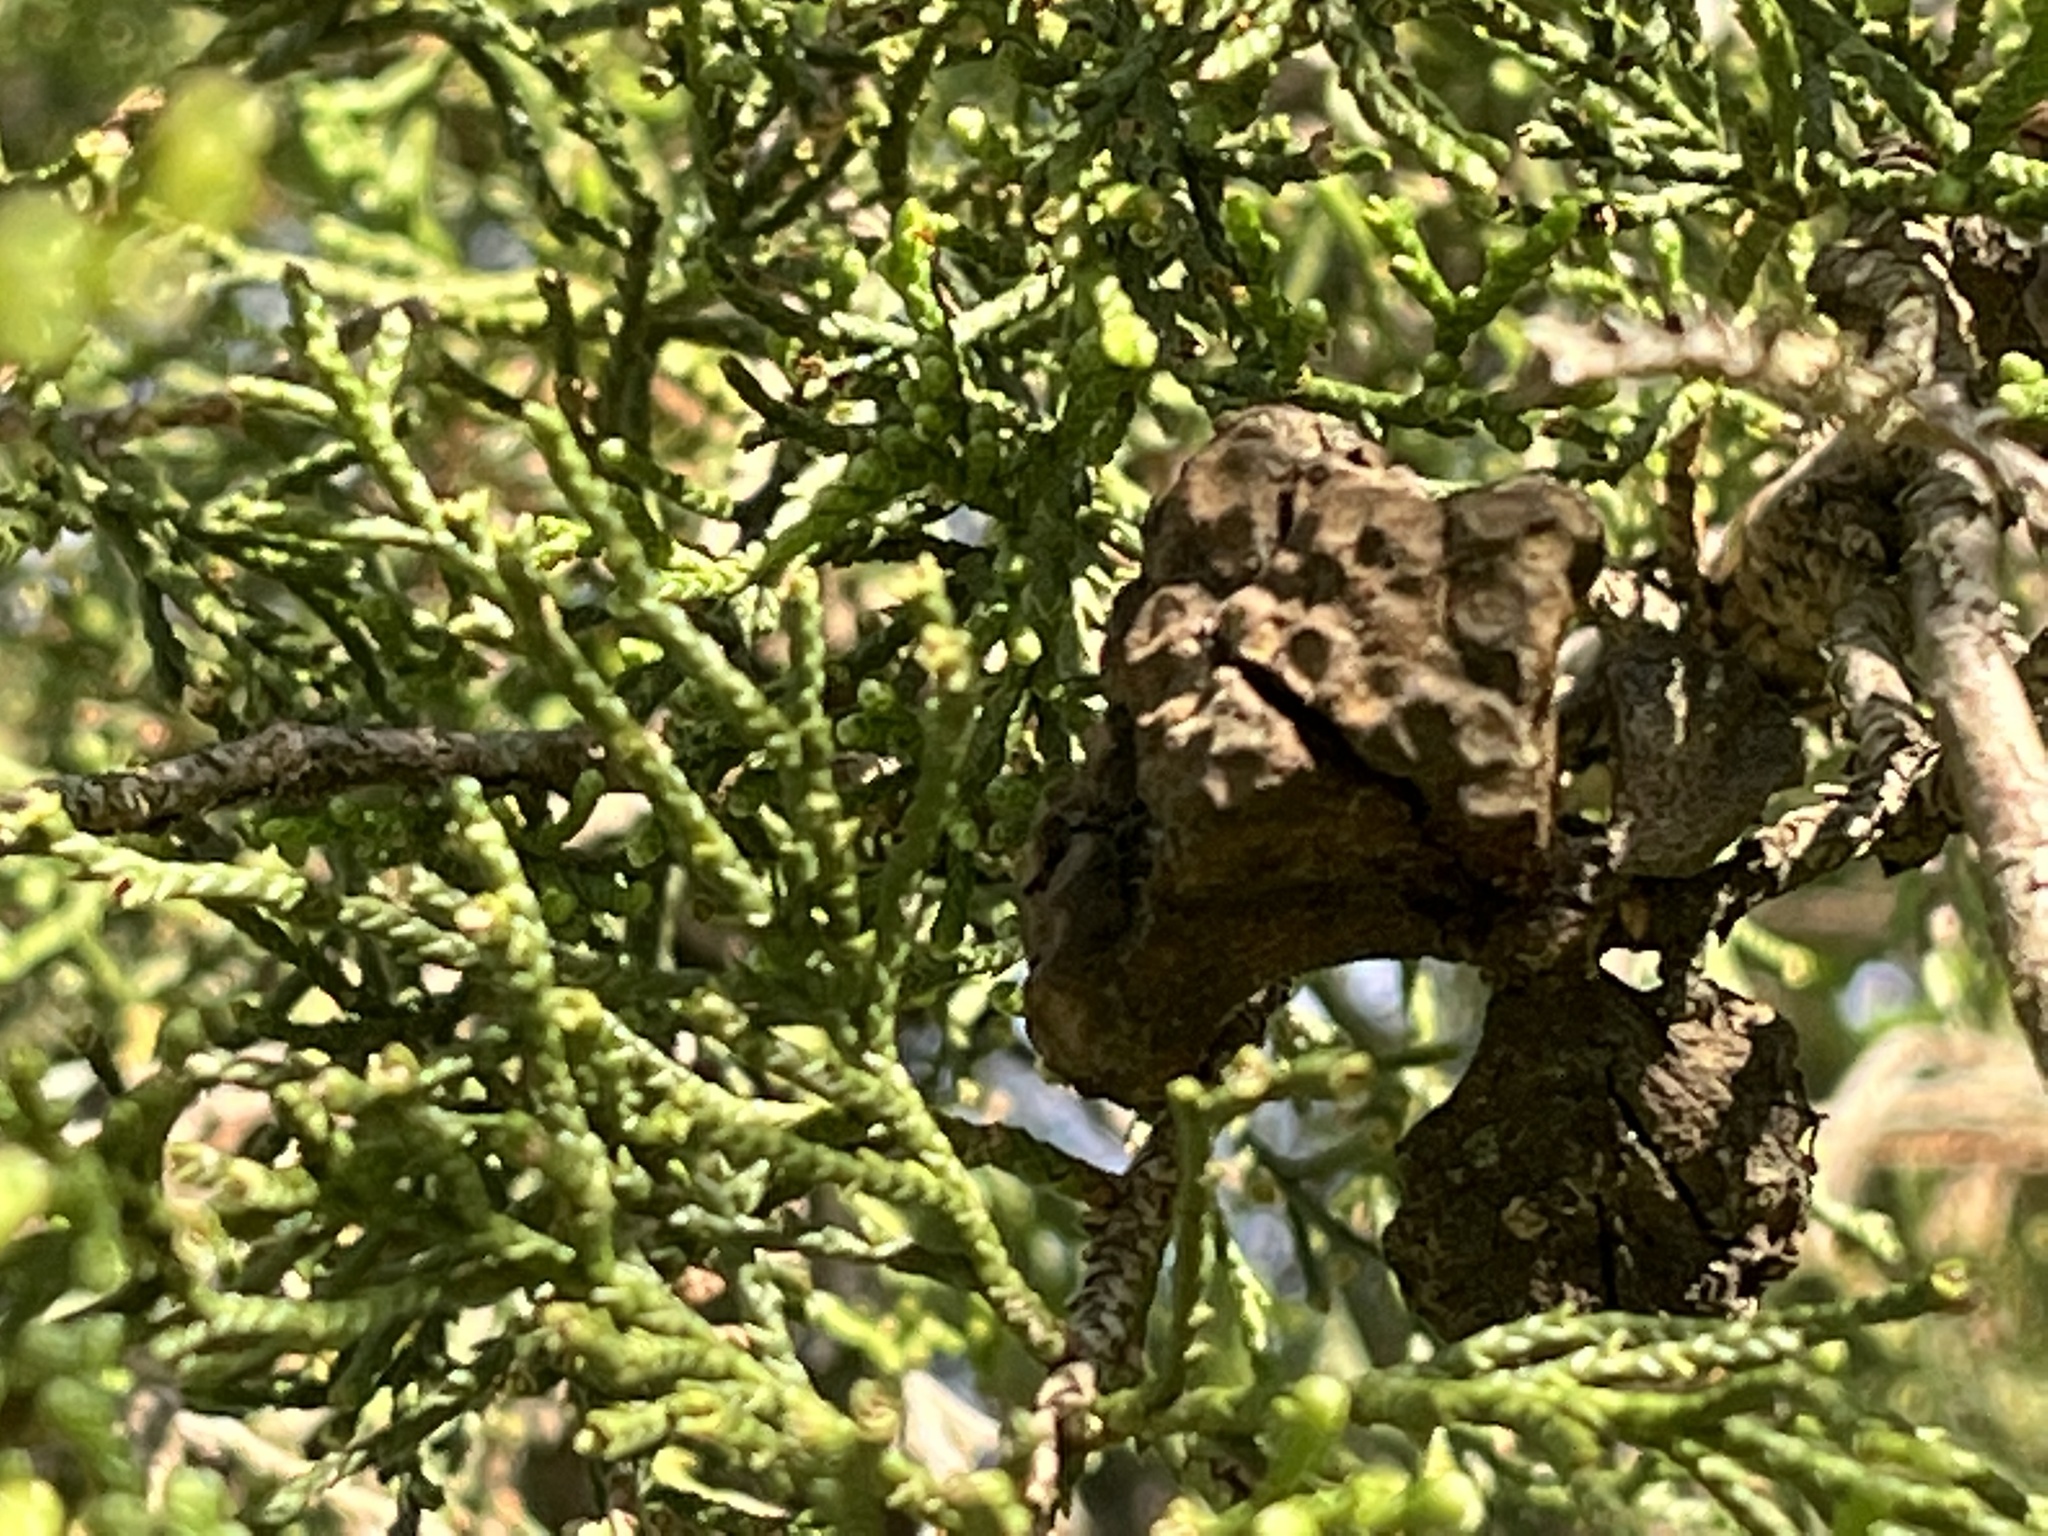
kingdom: Fungi
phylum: Basidiomycota
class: Pucciniomycetes
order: Pucciniales
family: Gymnosporangiaceae
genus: Gymnosporangium
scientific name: Gymnosporangium juniperi-virginianae
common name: Juniper-apple rust
